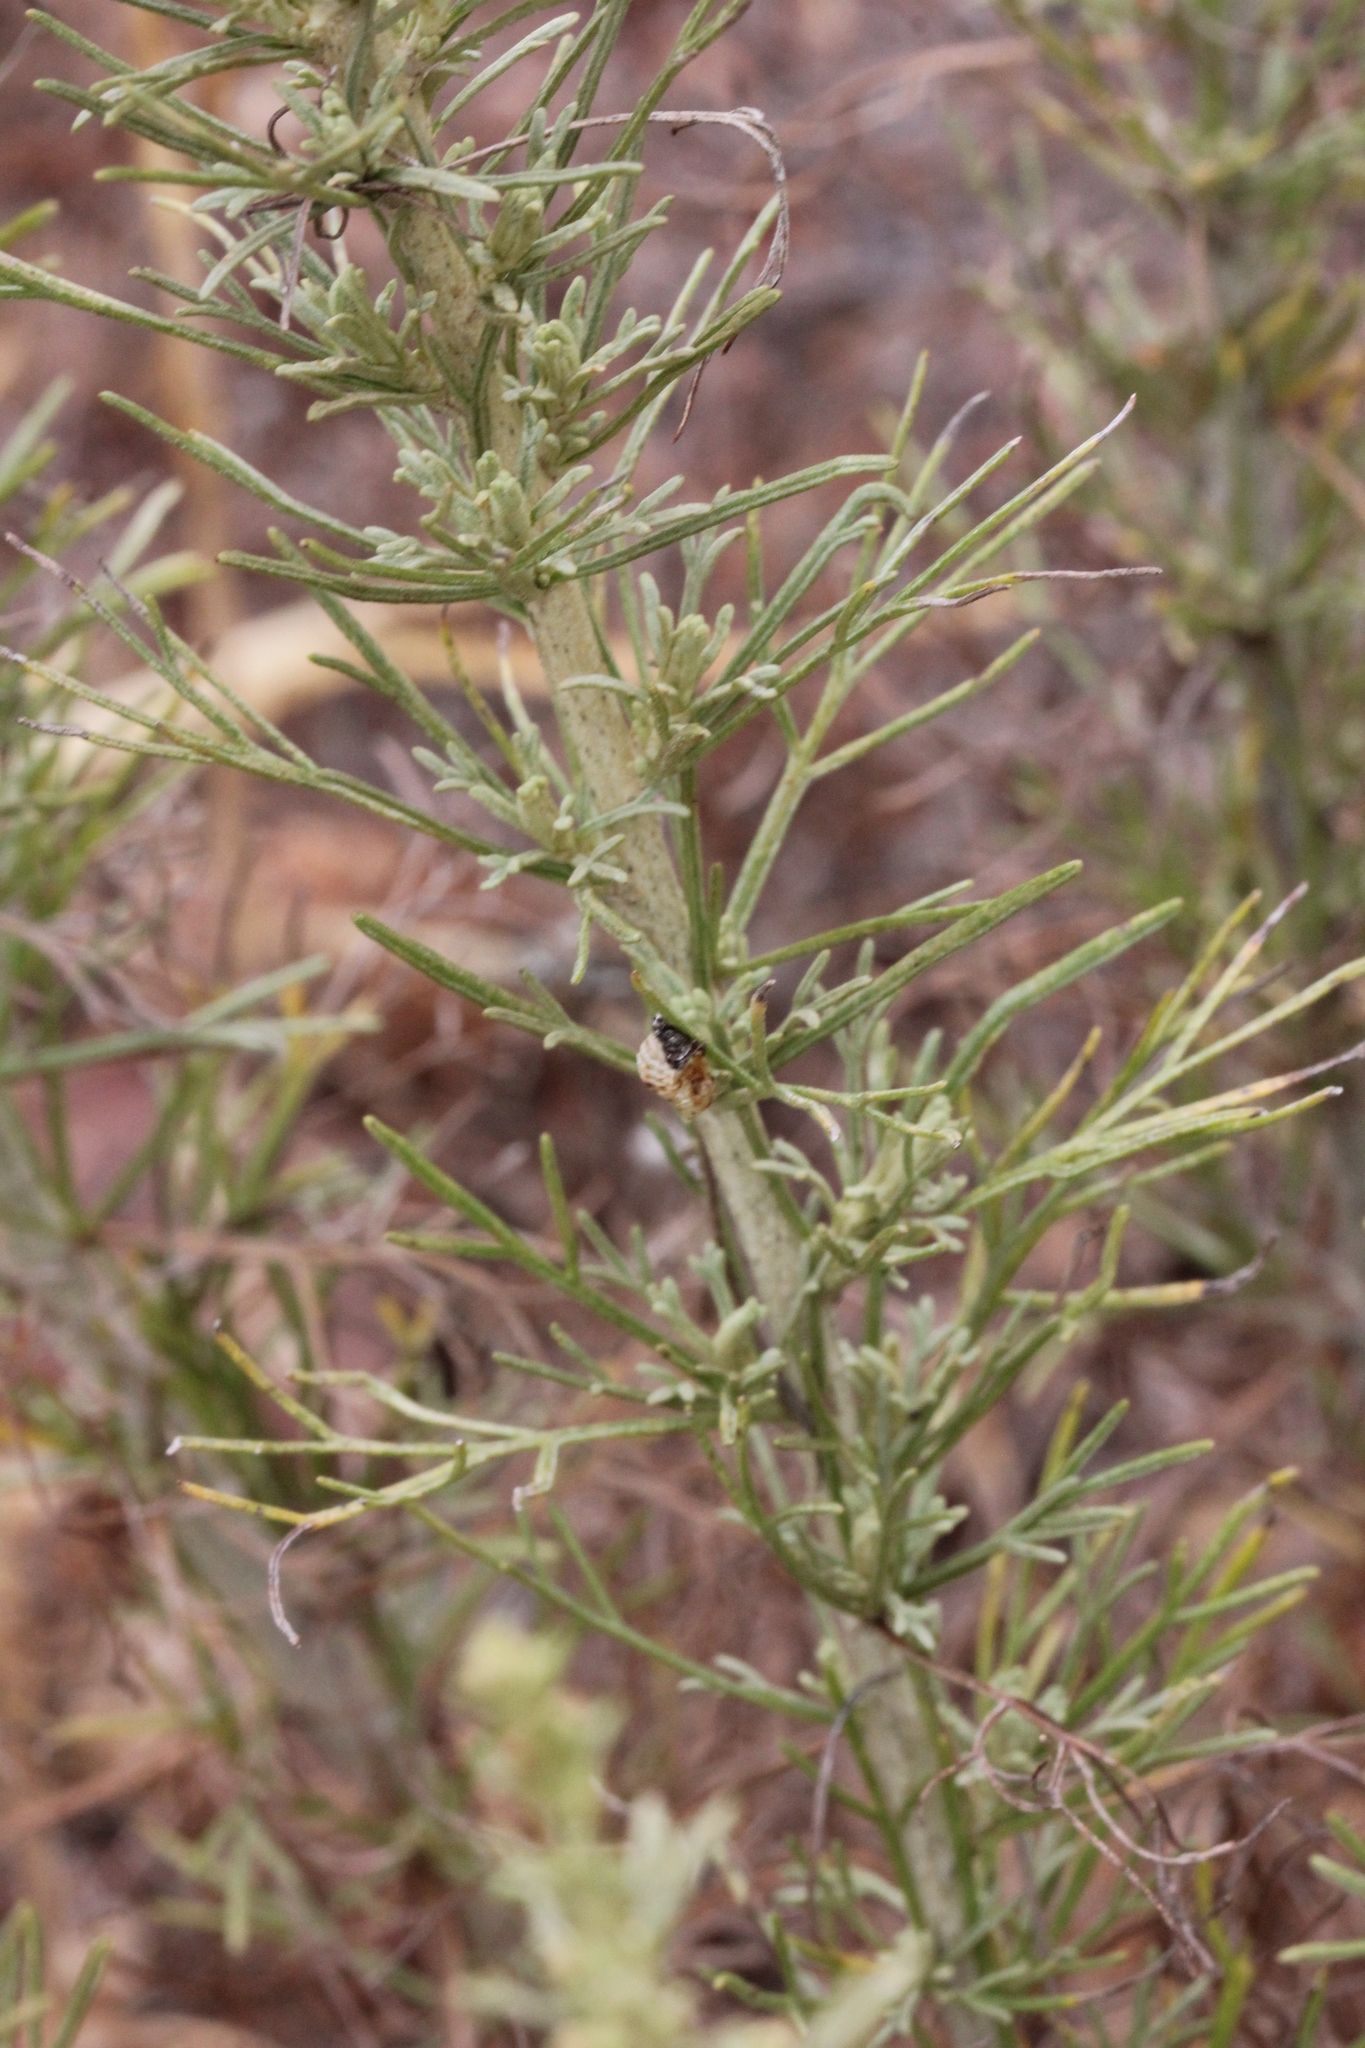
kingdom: Plantae
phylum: Tracheophyta
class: Magnoliopsida
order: Asterales
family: Asteraceae
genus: Artemisia
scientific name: Artemisia californica
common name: California sagebrush
